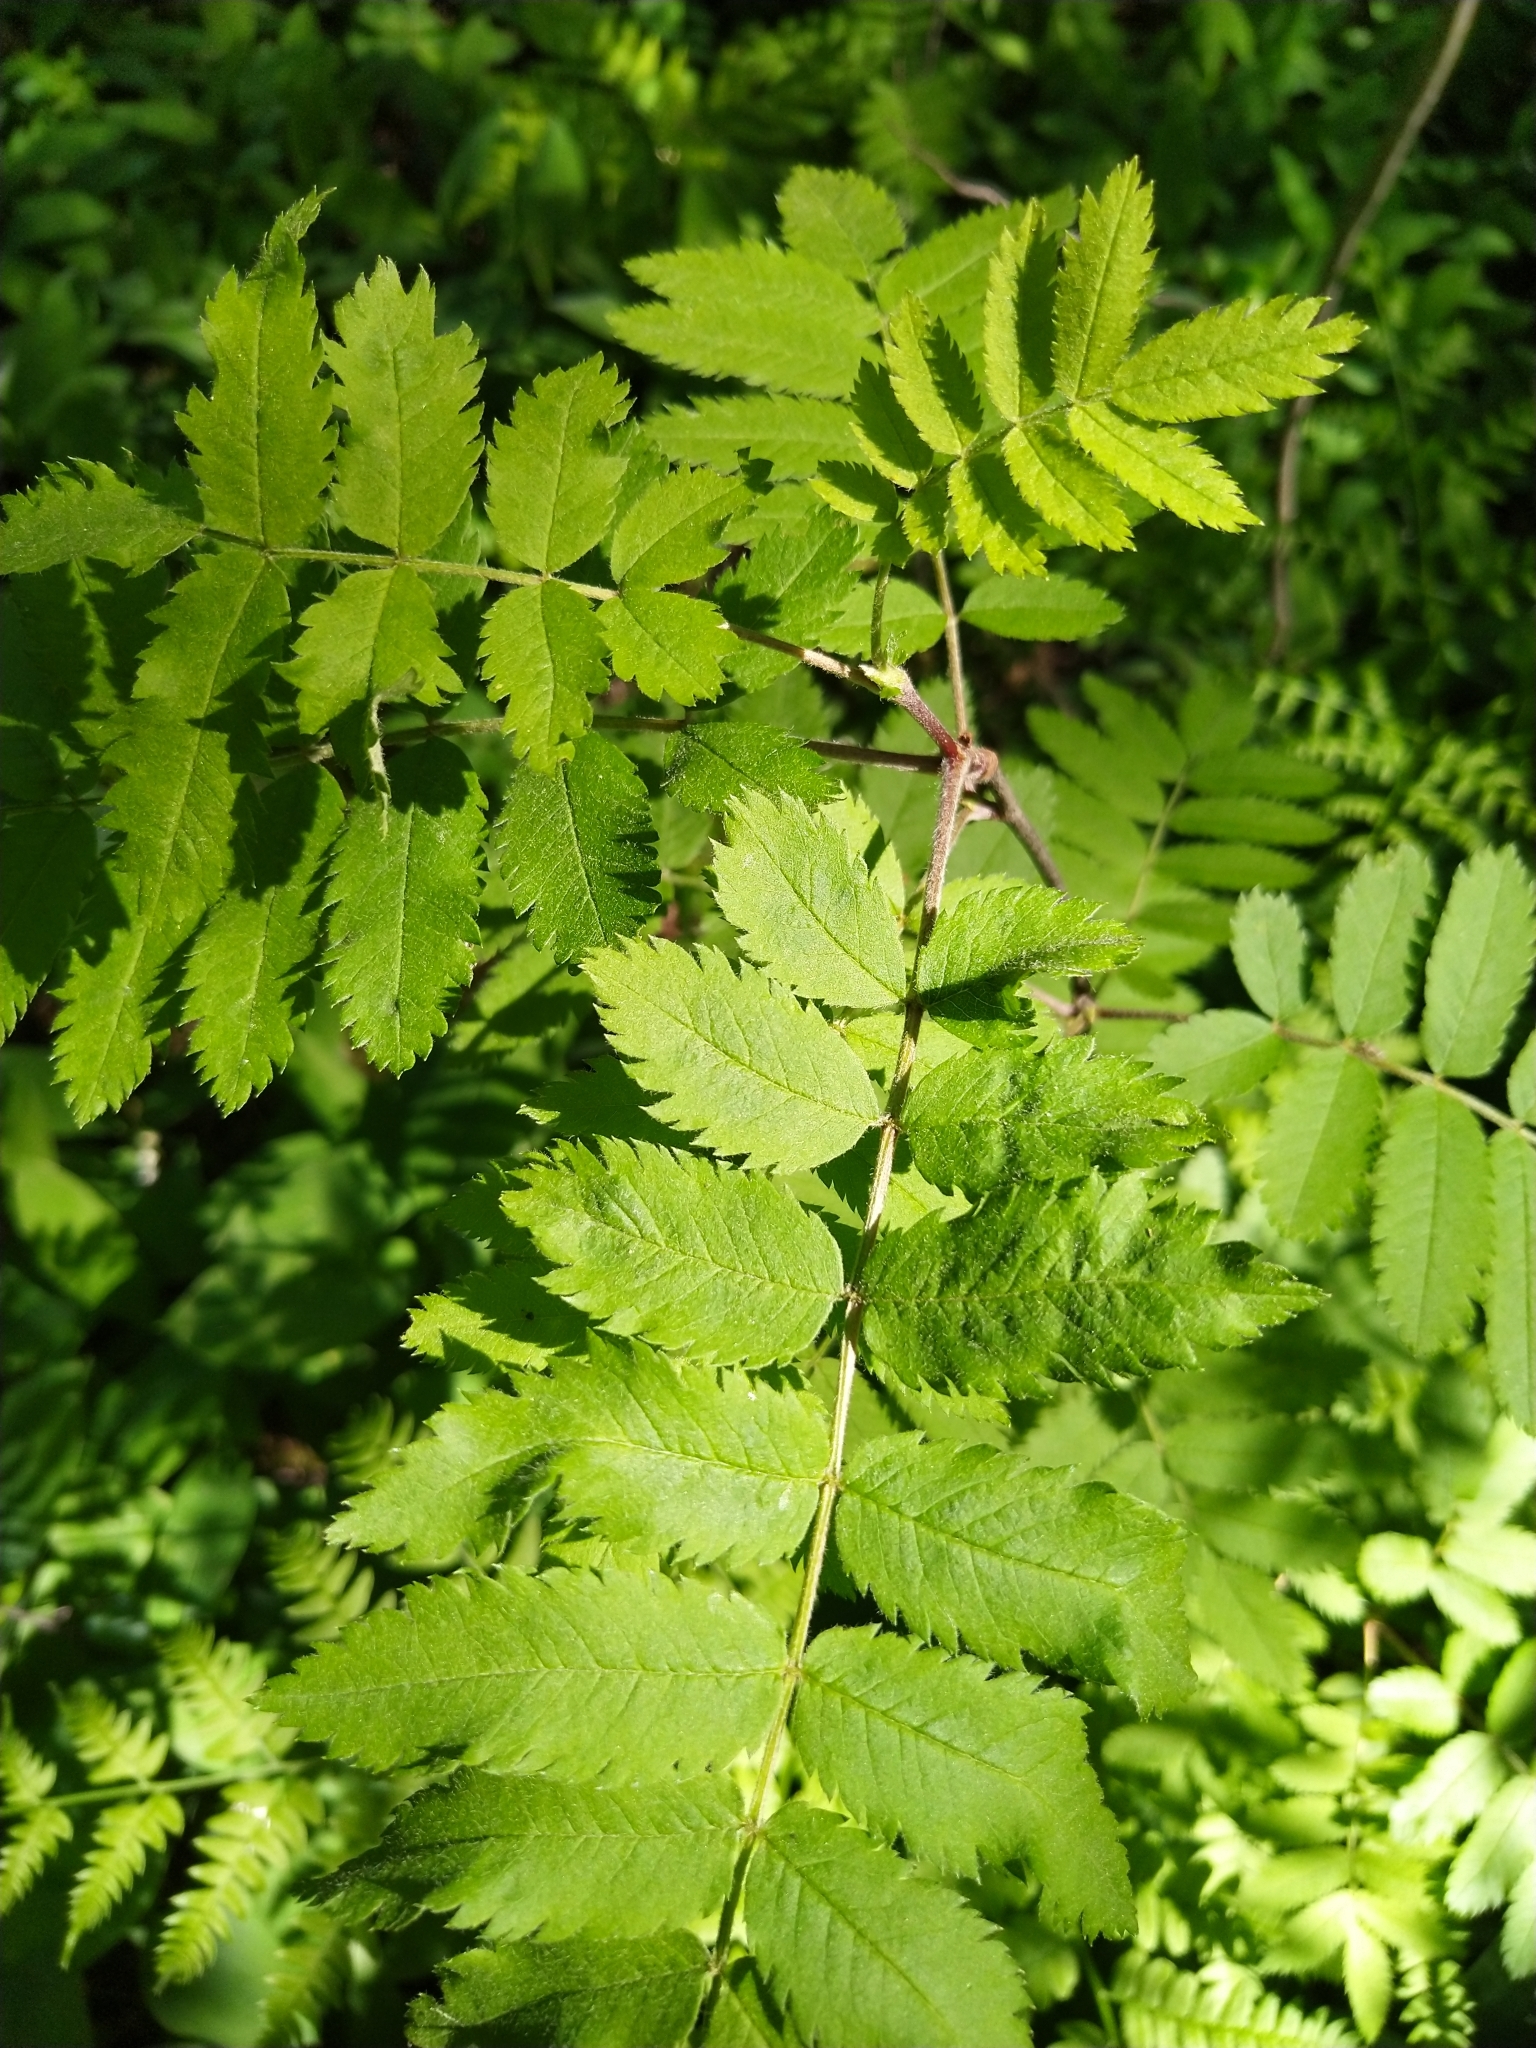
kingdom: Plantae
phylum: Tracheophyta
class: Magnoliopsida
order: Rosales
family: Rosaceae
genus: Sorbus
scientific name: Sorbus aucuparia
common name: Rowan
